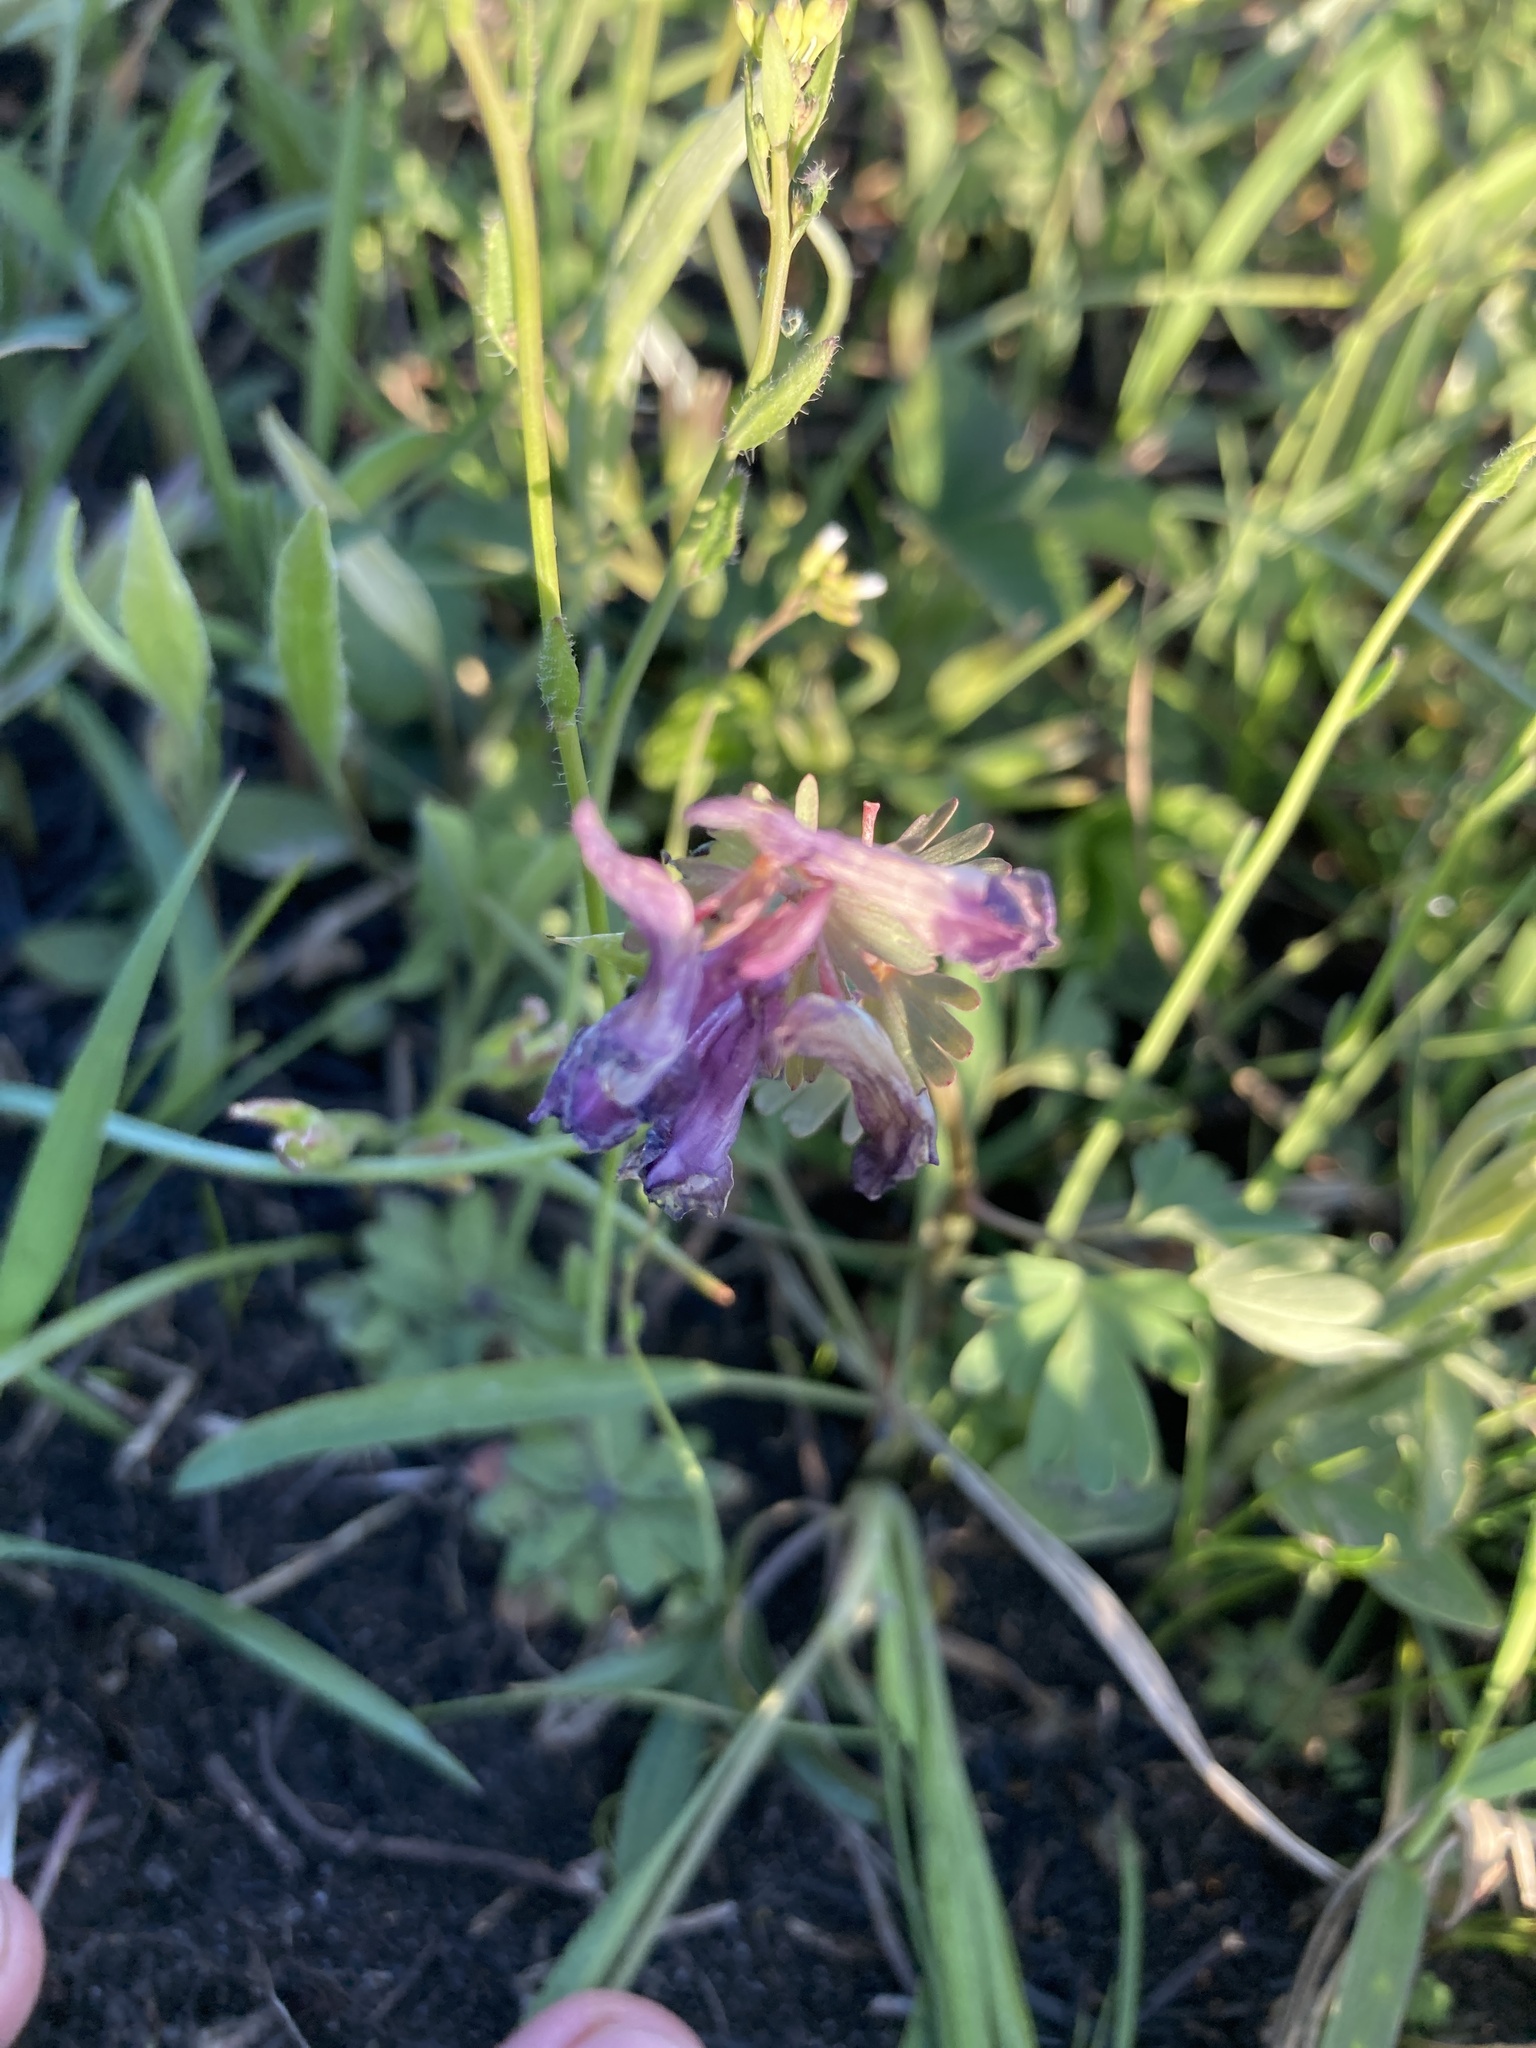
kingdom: Plantae
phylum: Tracheophyta
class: Magnoliopsida
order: Ranunculales
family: Papaveraceae
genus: Corydalis
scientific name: Corydalis solida
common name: Bird-in-a-bush
